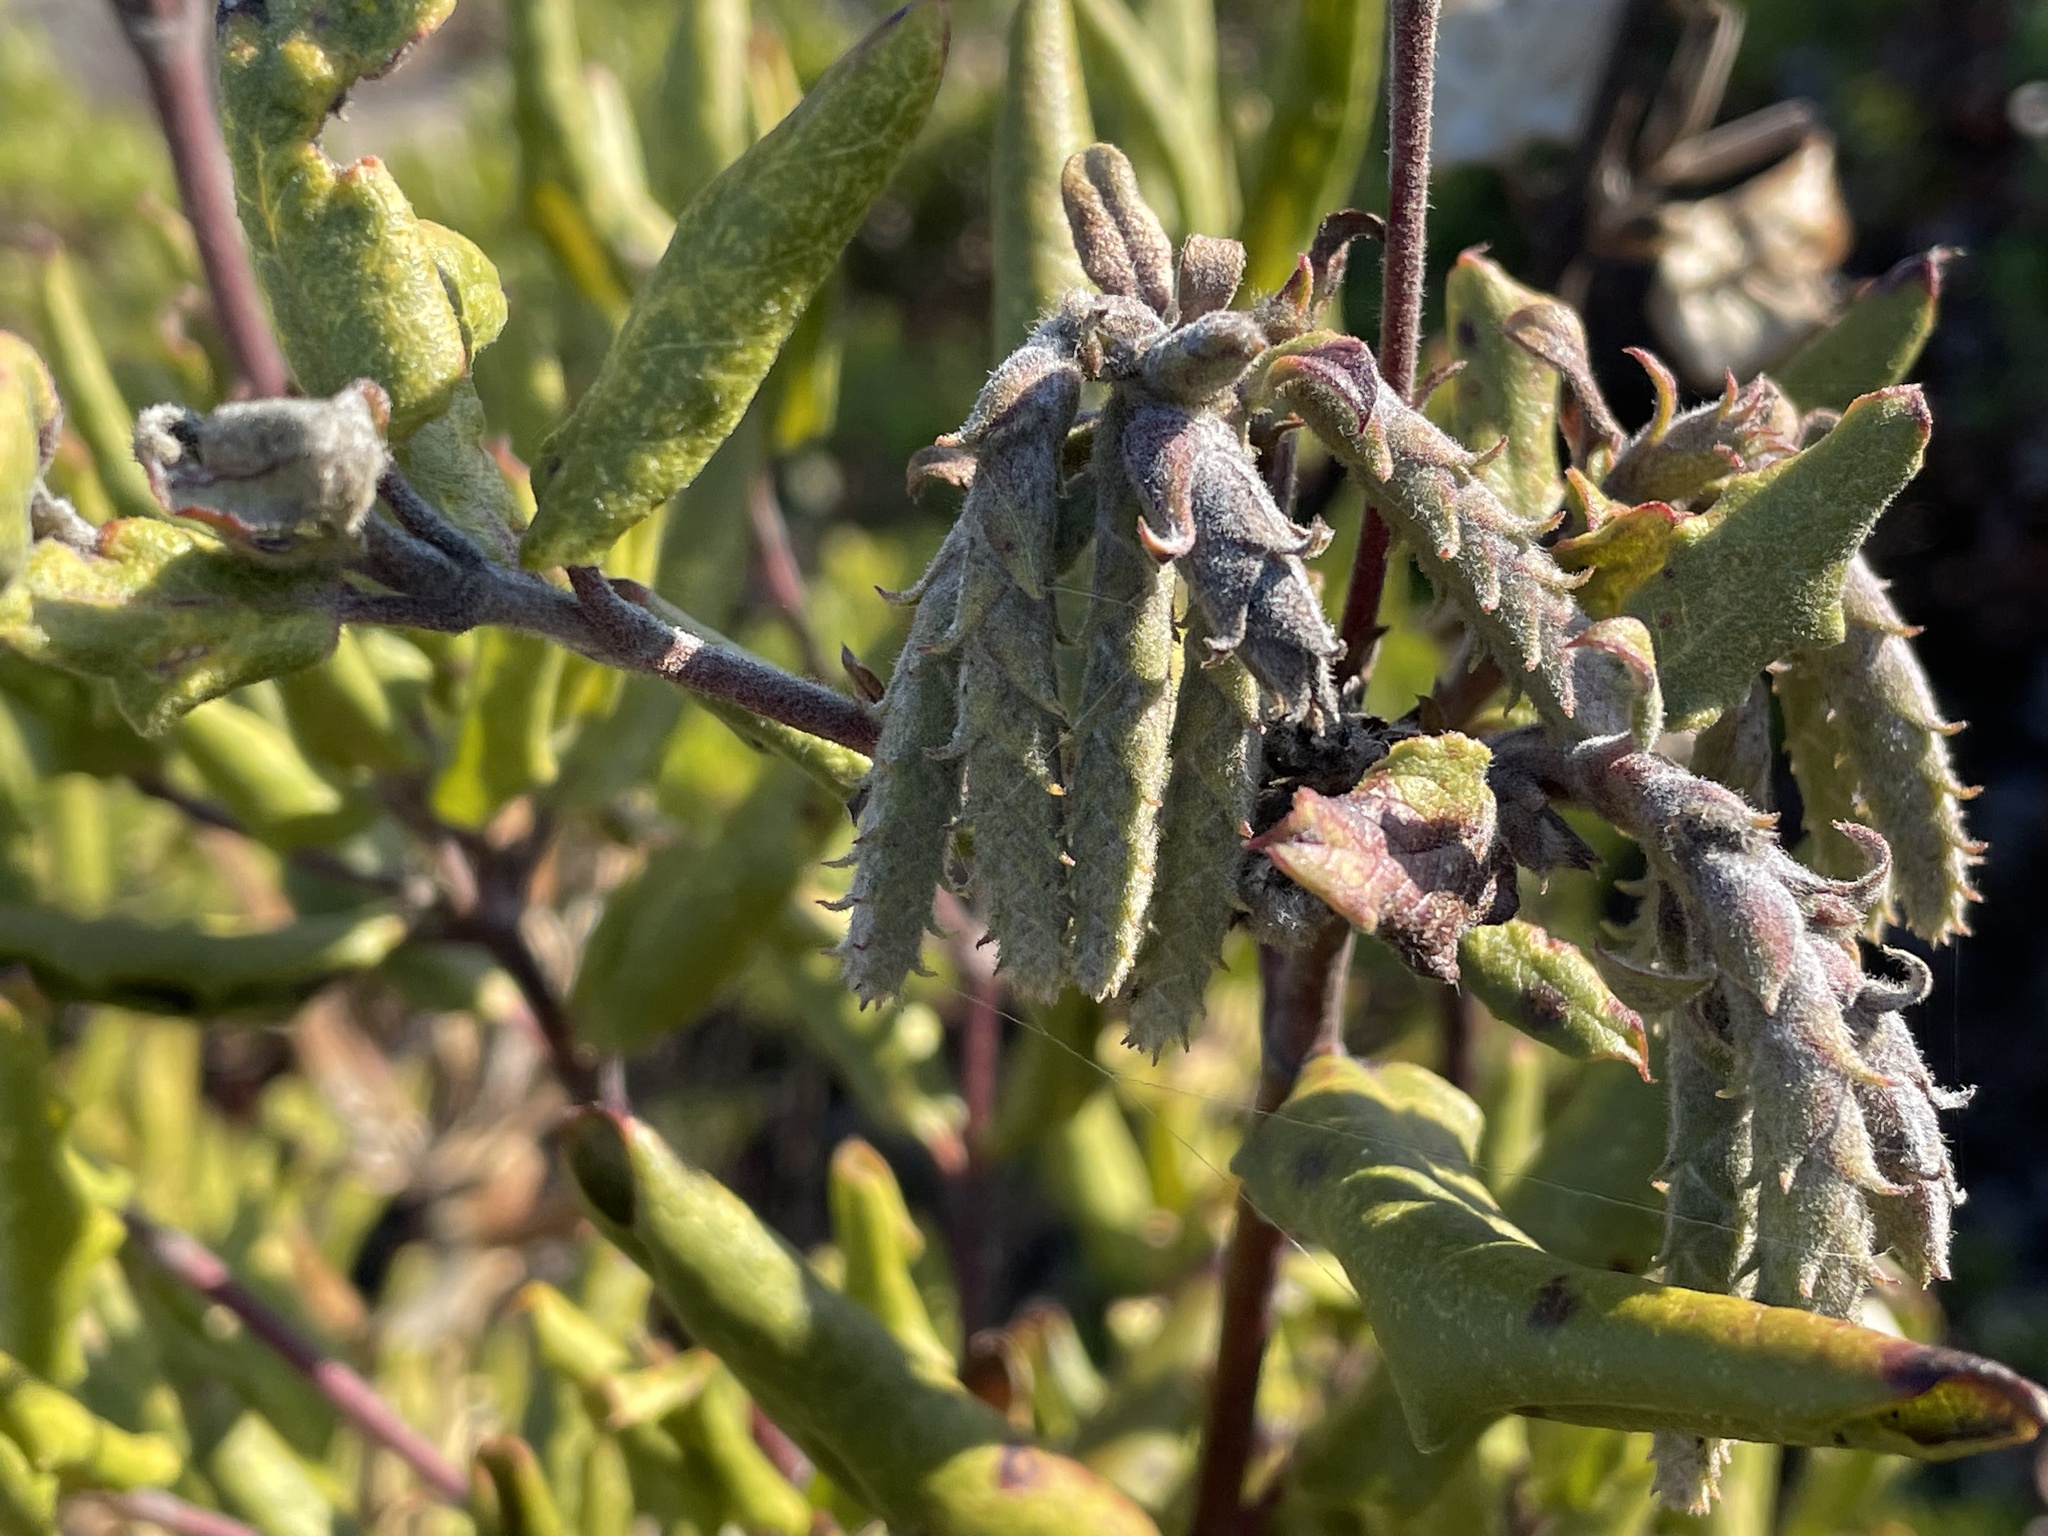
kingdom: Plantae
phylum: Tracheophyta
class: Magnoliopsida
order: Garryales
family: Garryaceae
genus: Garrya
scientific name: Garrya elliptica
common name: Silk-tassel
